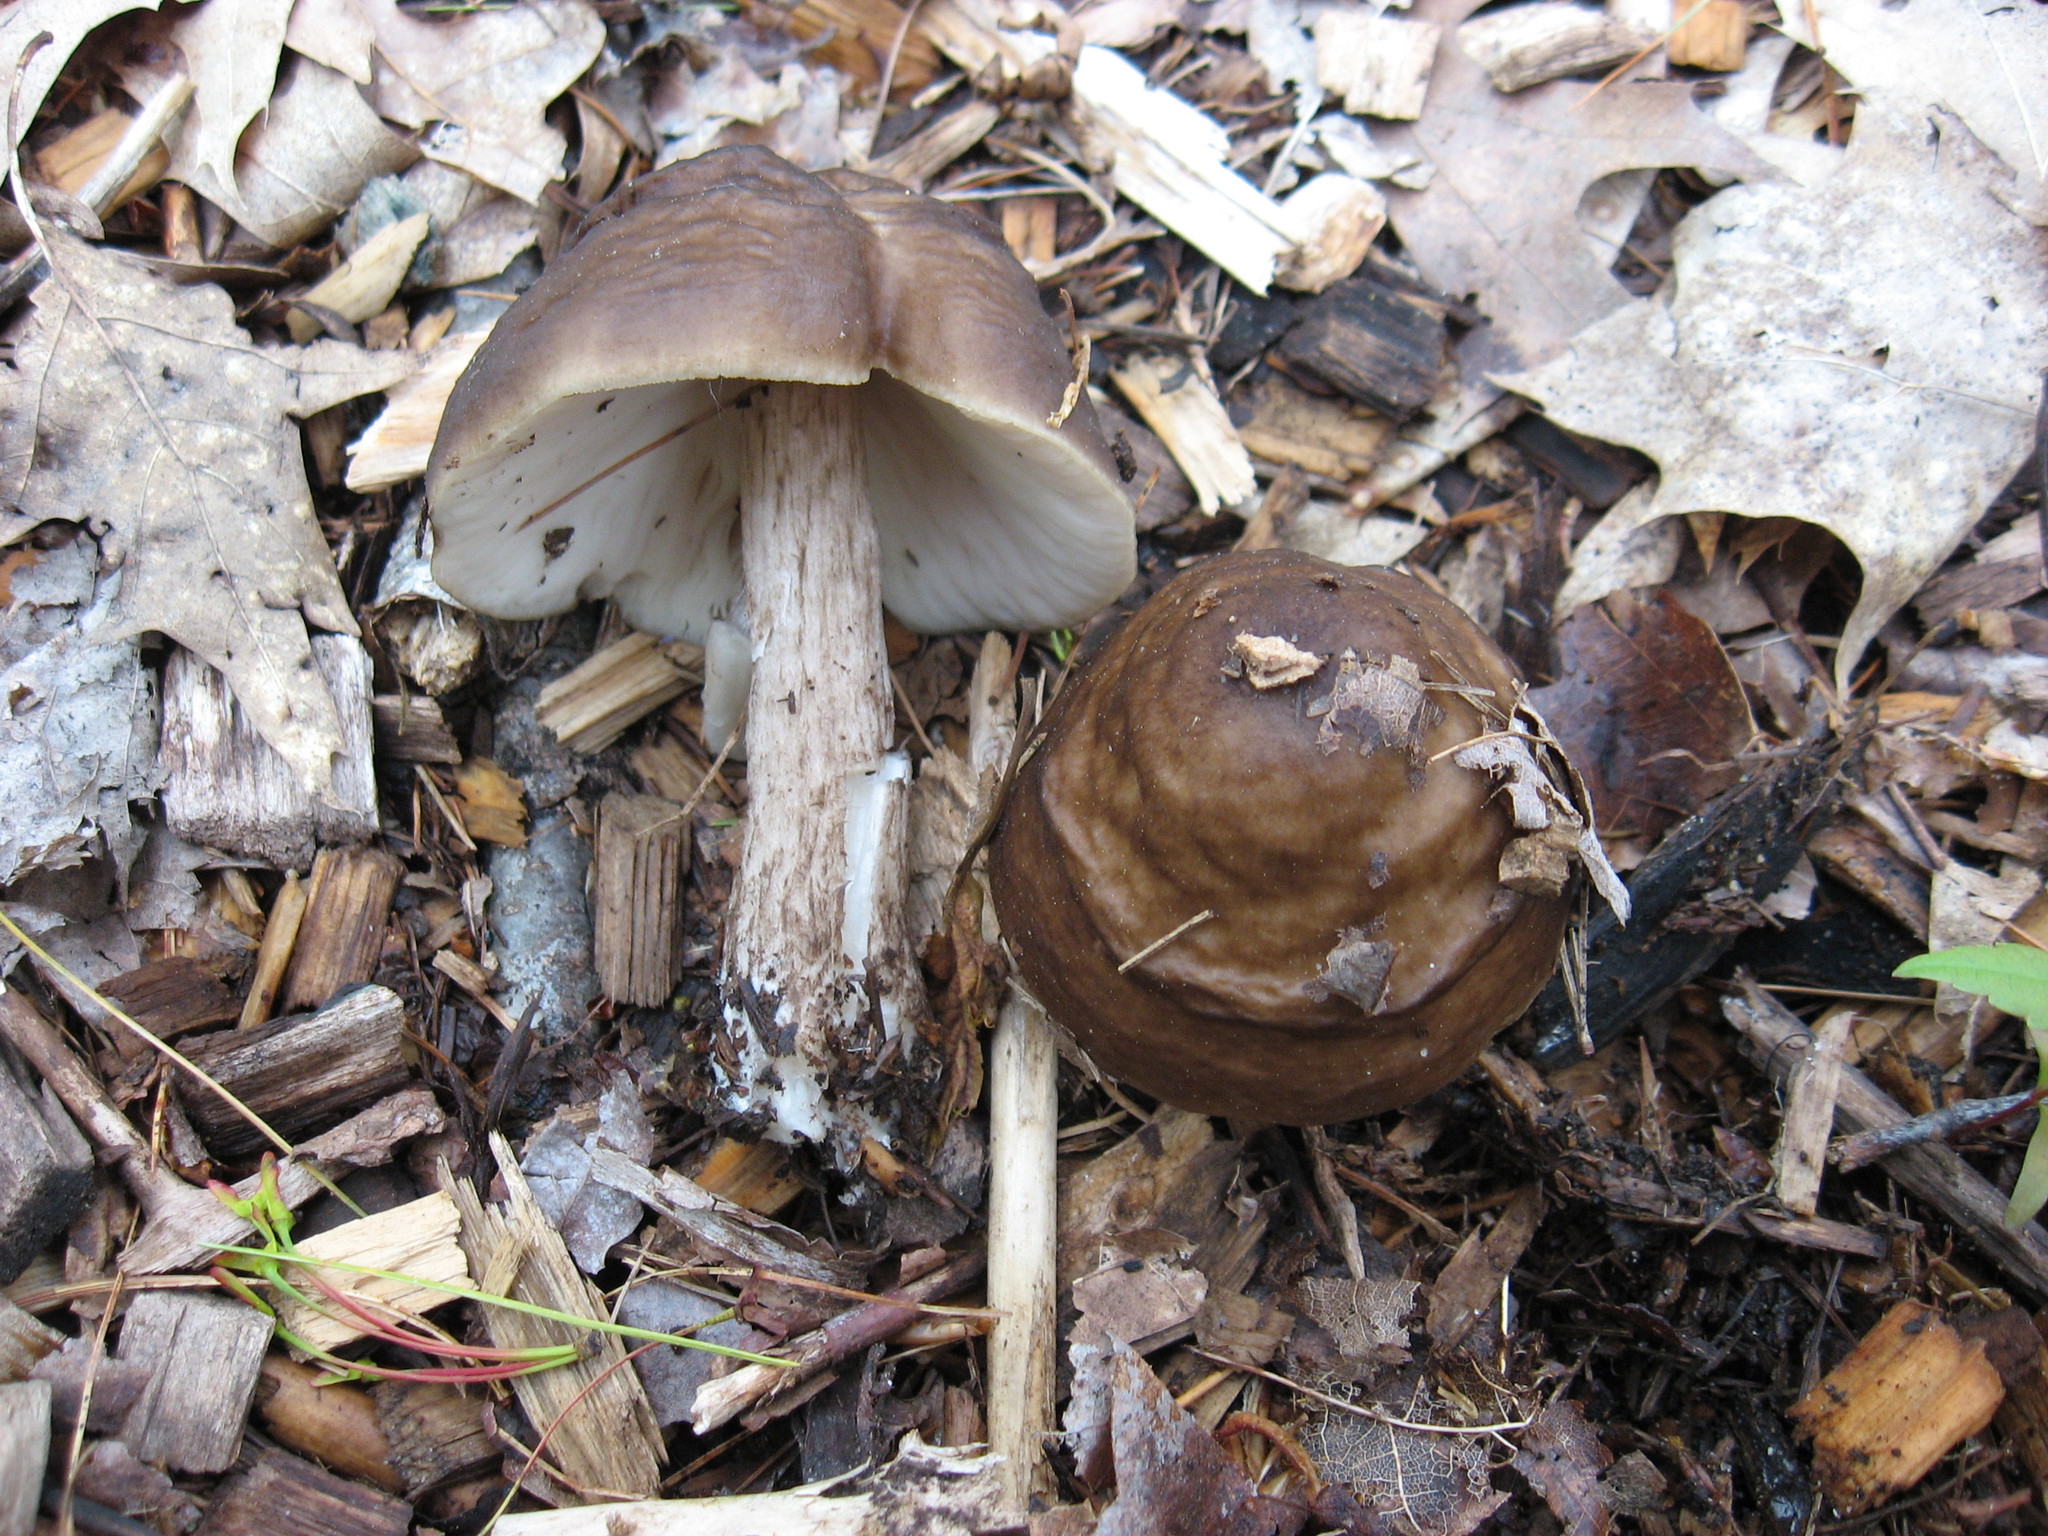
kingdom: Fungi
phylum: Basidiomycota
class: Agaricomycetes
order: Agaricales
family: Pluteaceae
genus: Pluteus
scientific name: Pluteus pouzarianus
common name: Conifer shield
